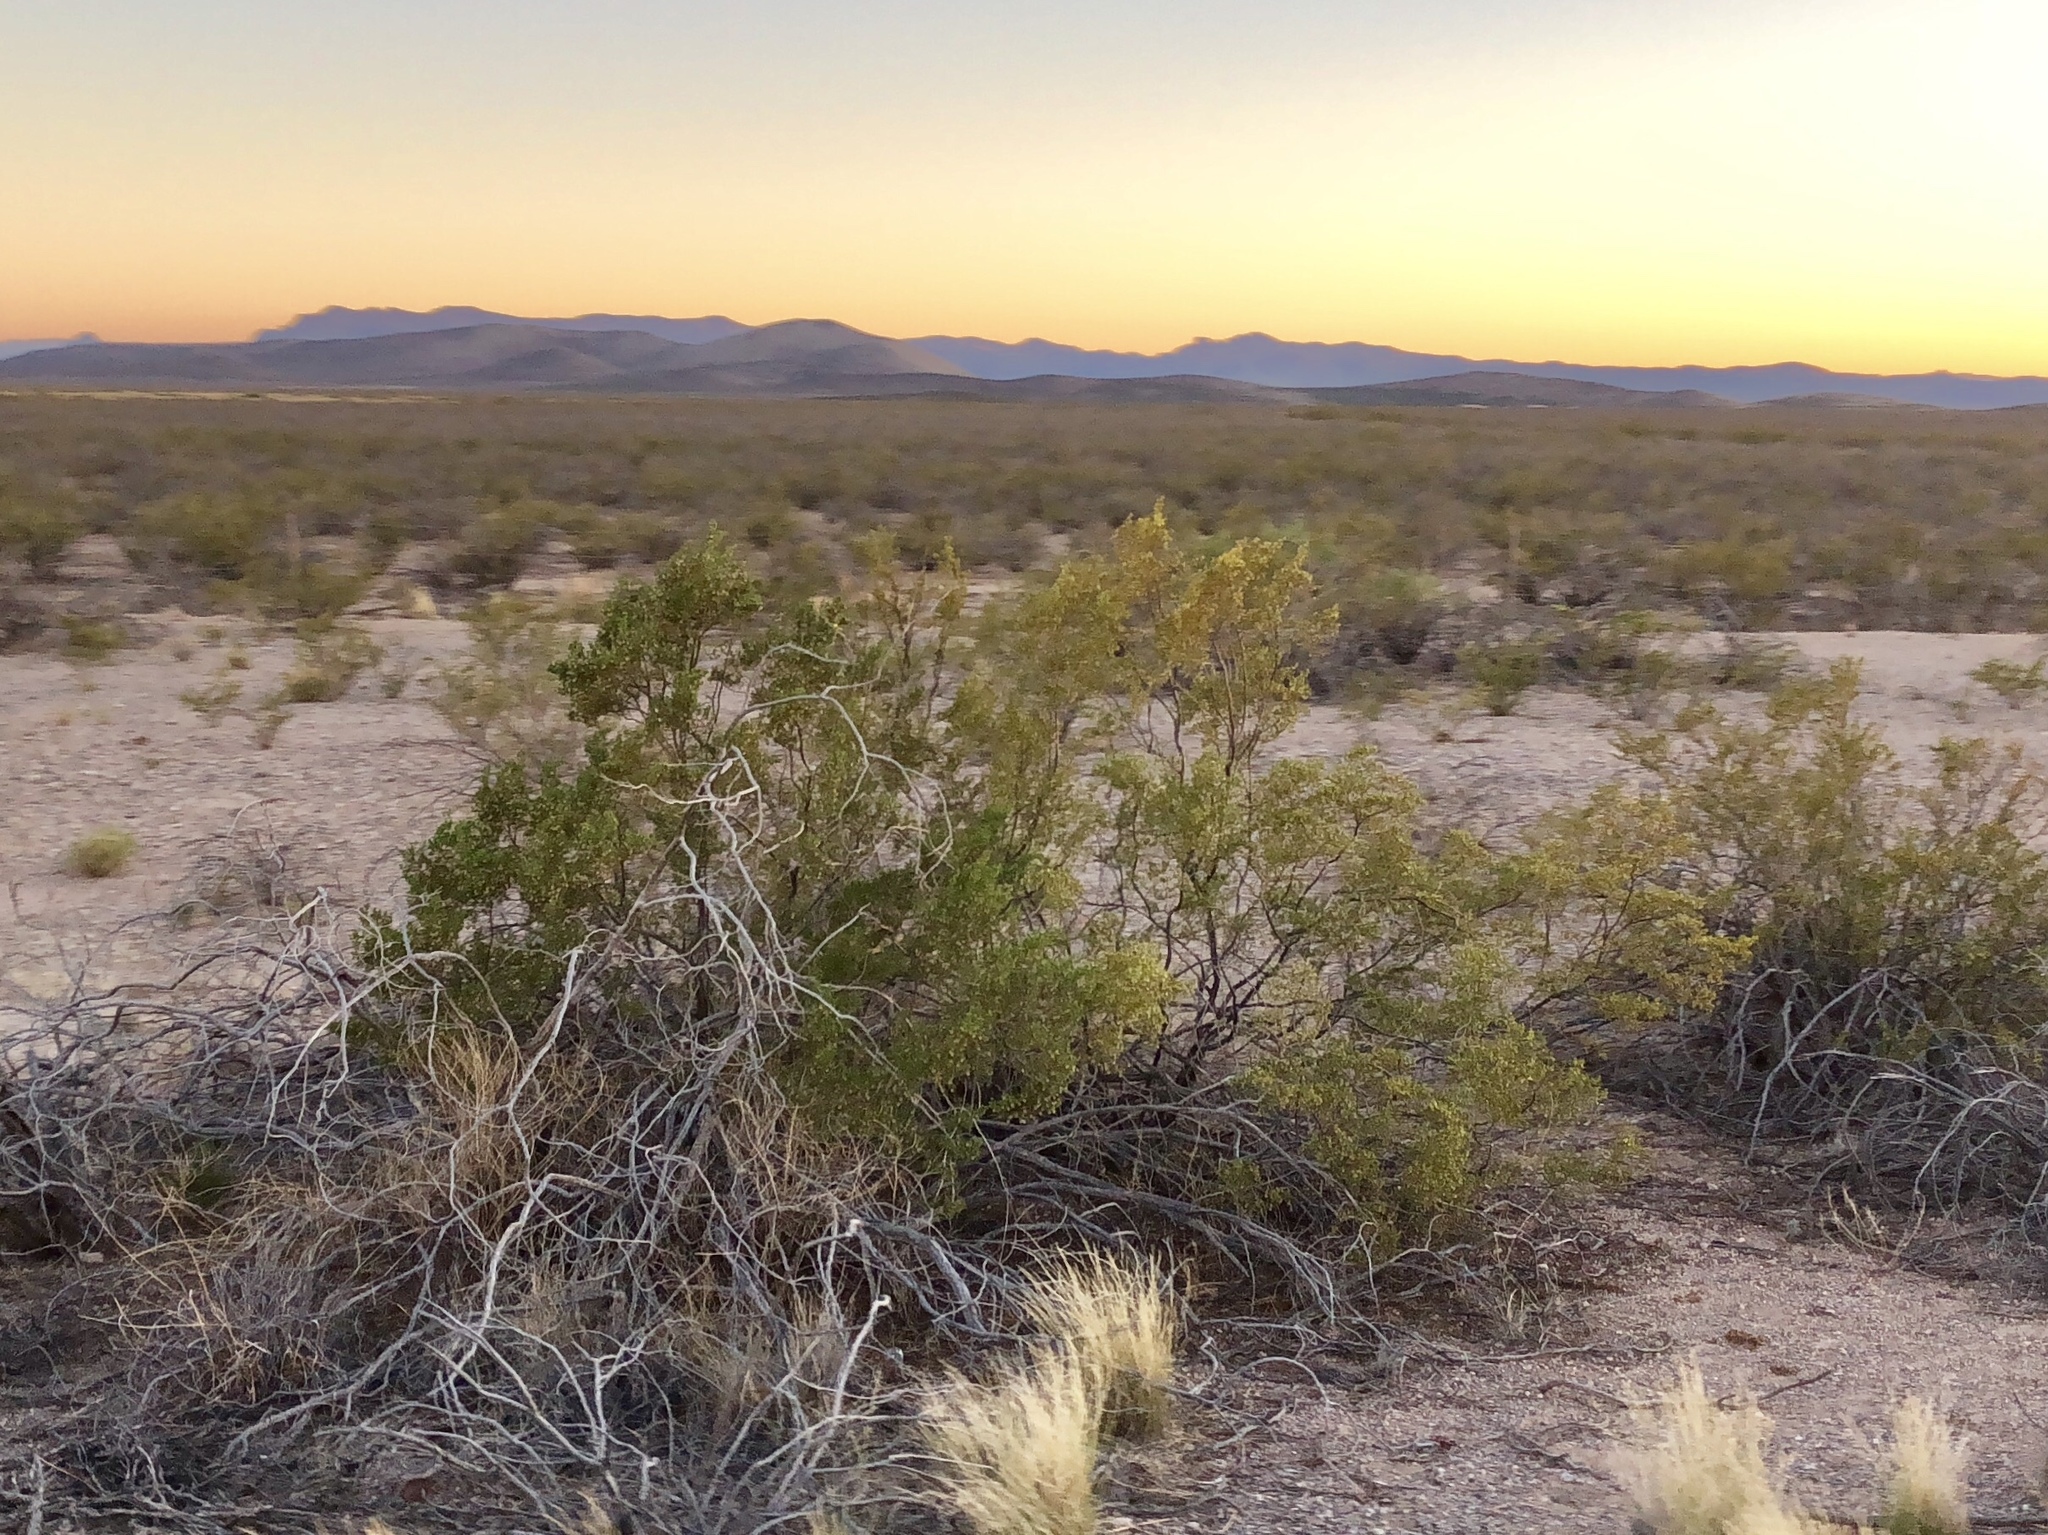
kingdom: Plantae
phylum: Tracheophyta
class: Magnoliopsida
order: Zygophyllales
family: Zygophyllaceae
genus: Larrea
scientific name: Larrea tridentata
